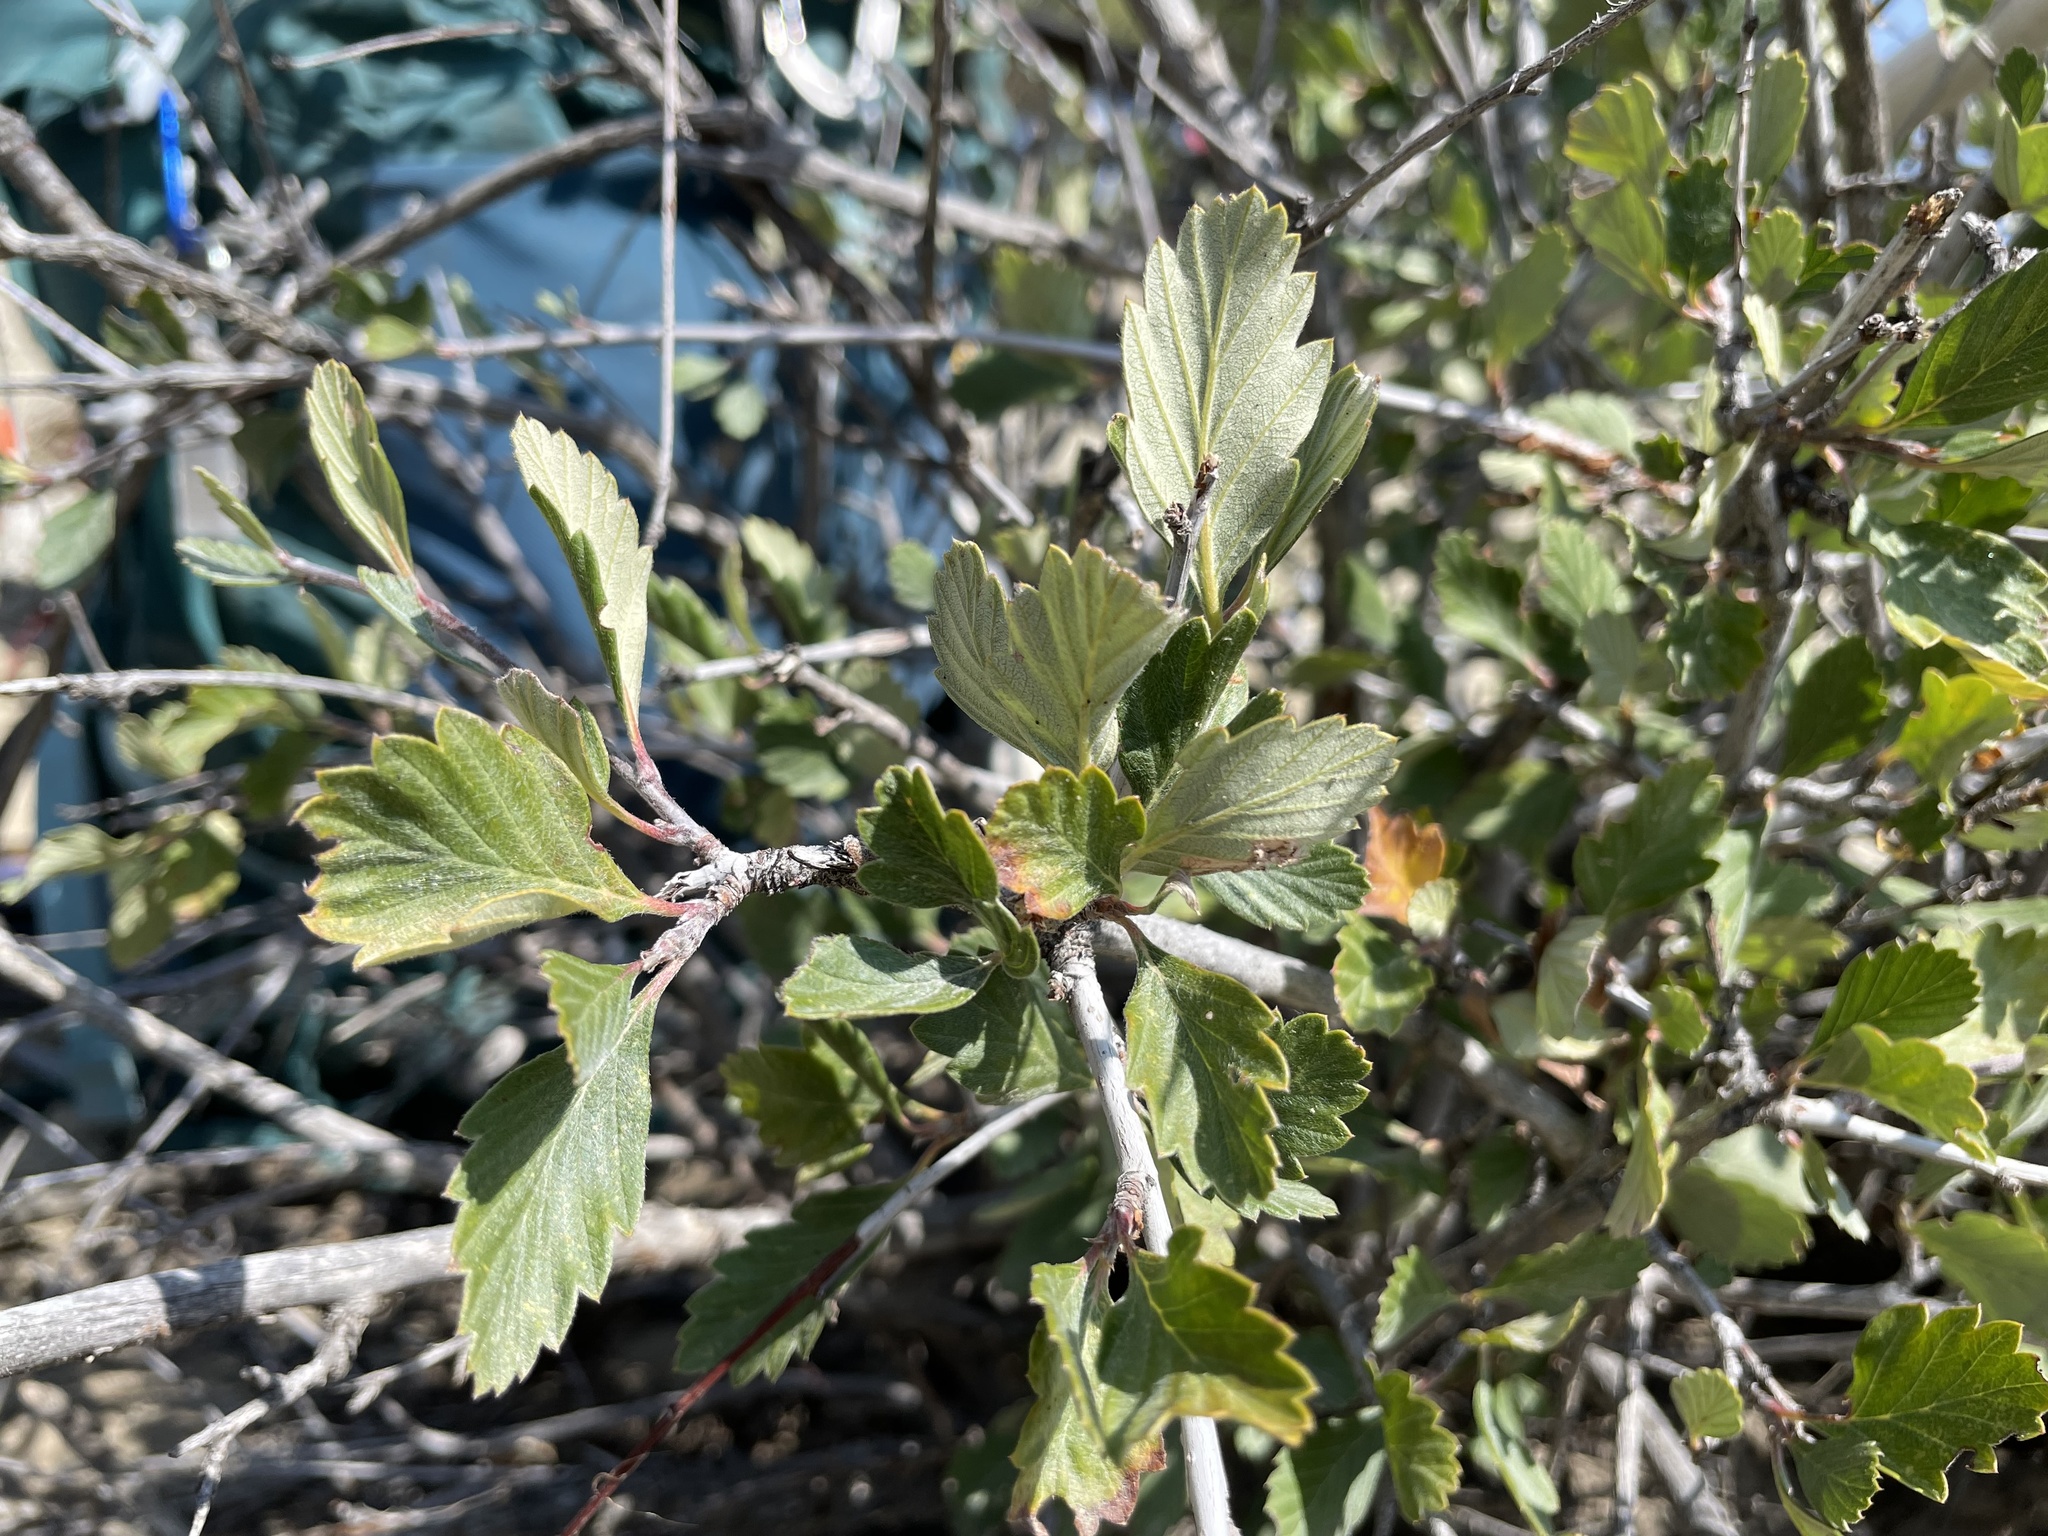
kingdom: Plantae
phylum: Tracheophyta
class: Magnoliopsida
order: Rosales
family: Rosaceae
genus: Cercocarpus
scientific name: Cercocarpus montanus
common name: Alder-leaf cercocarpus
